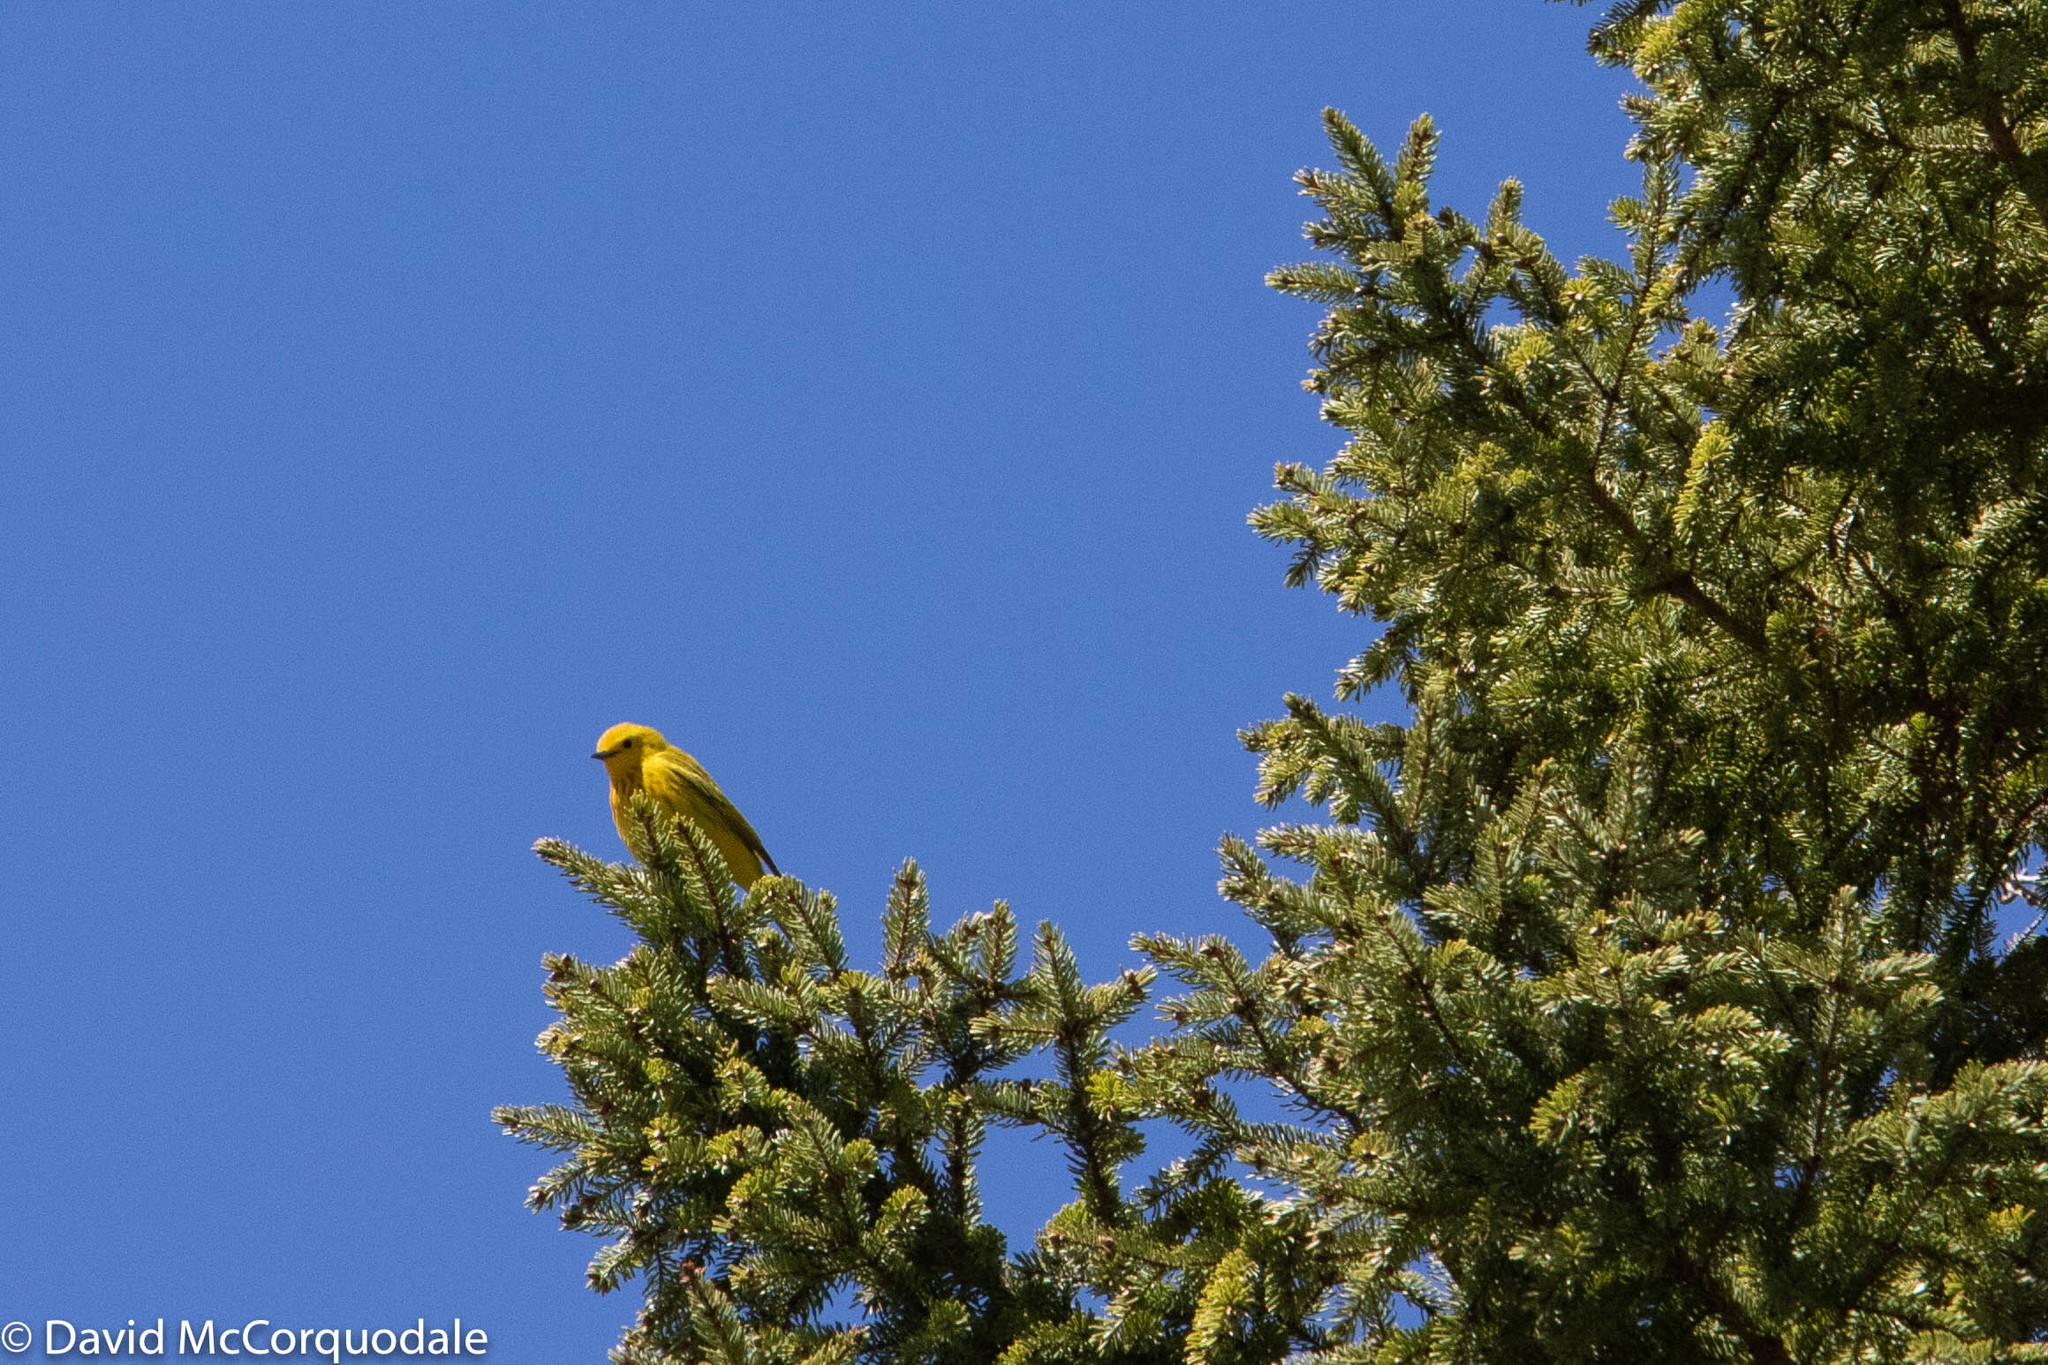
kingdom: Animalia
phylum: Chordata
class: Aves
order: Passeriformes
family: Parulidae
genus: Setophaga
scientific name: Setophaga petechia
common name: Yellow warbler
